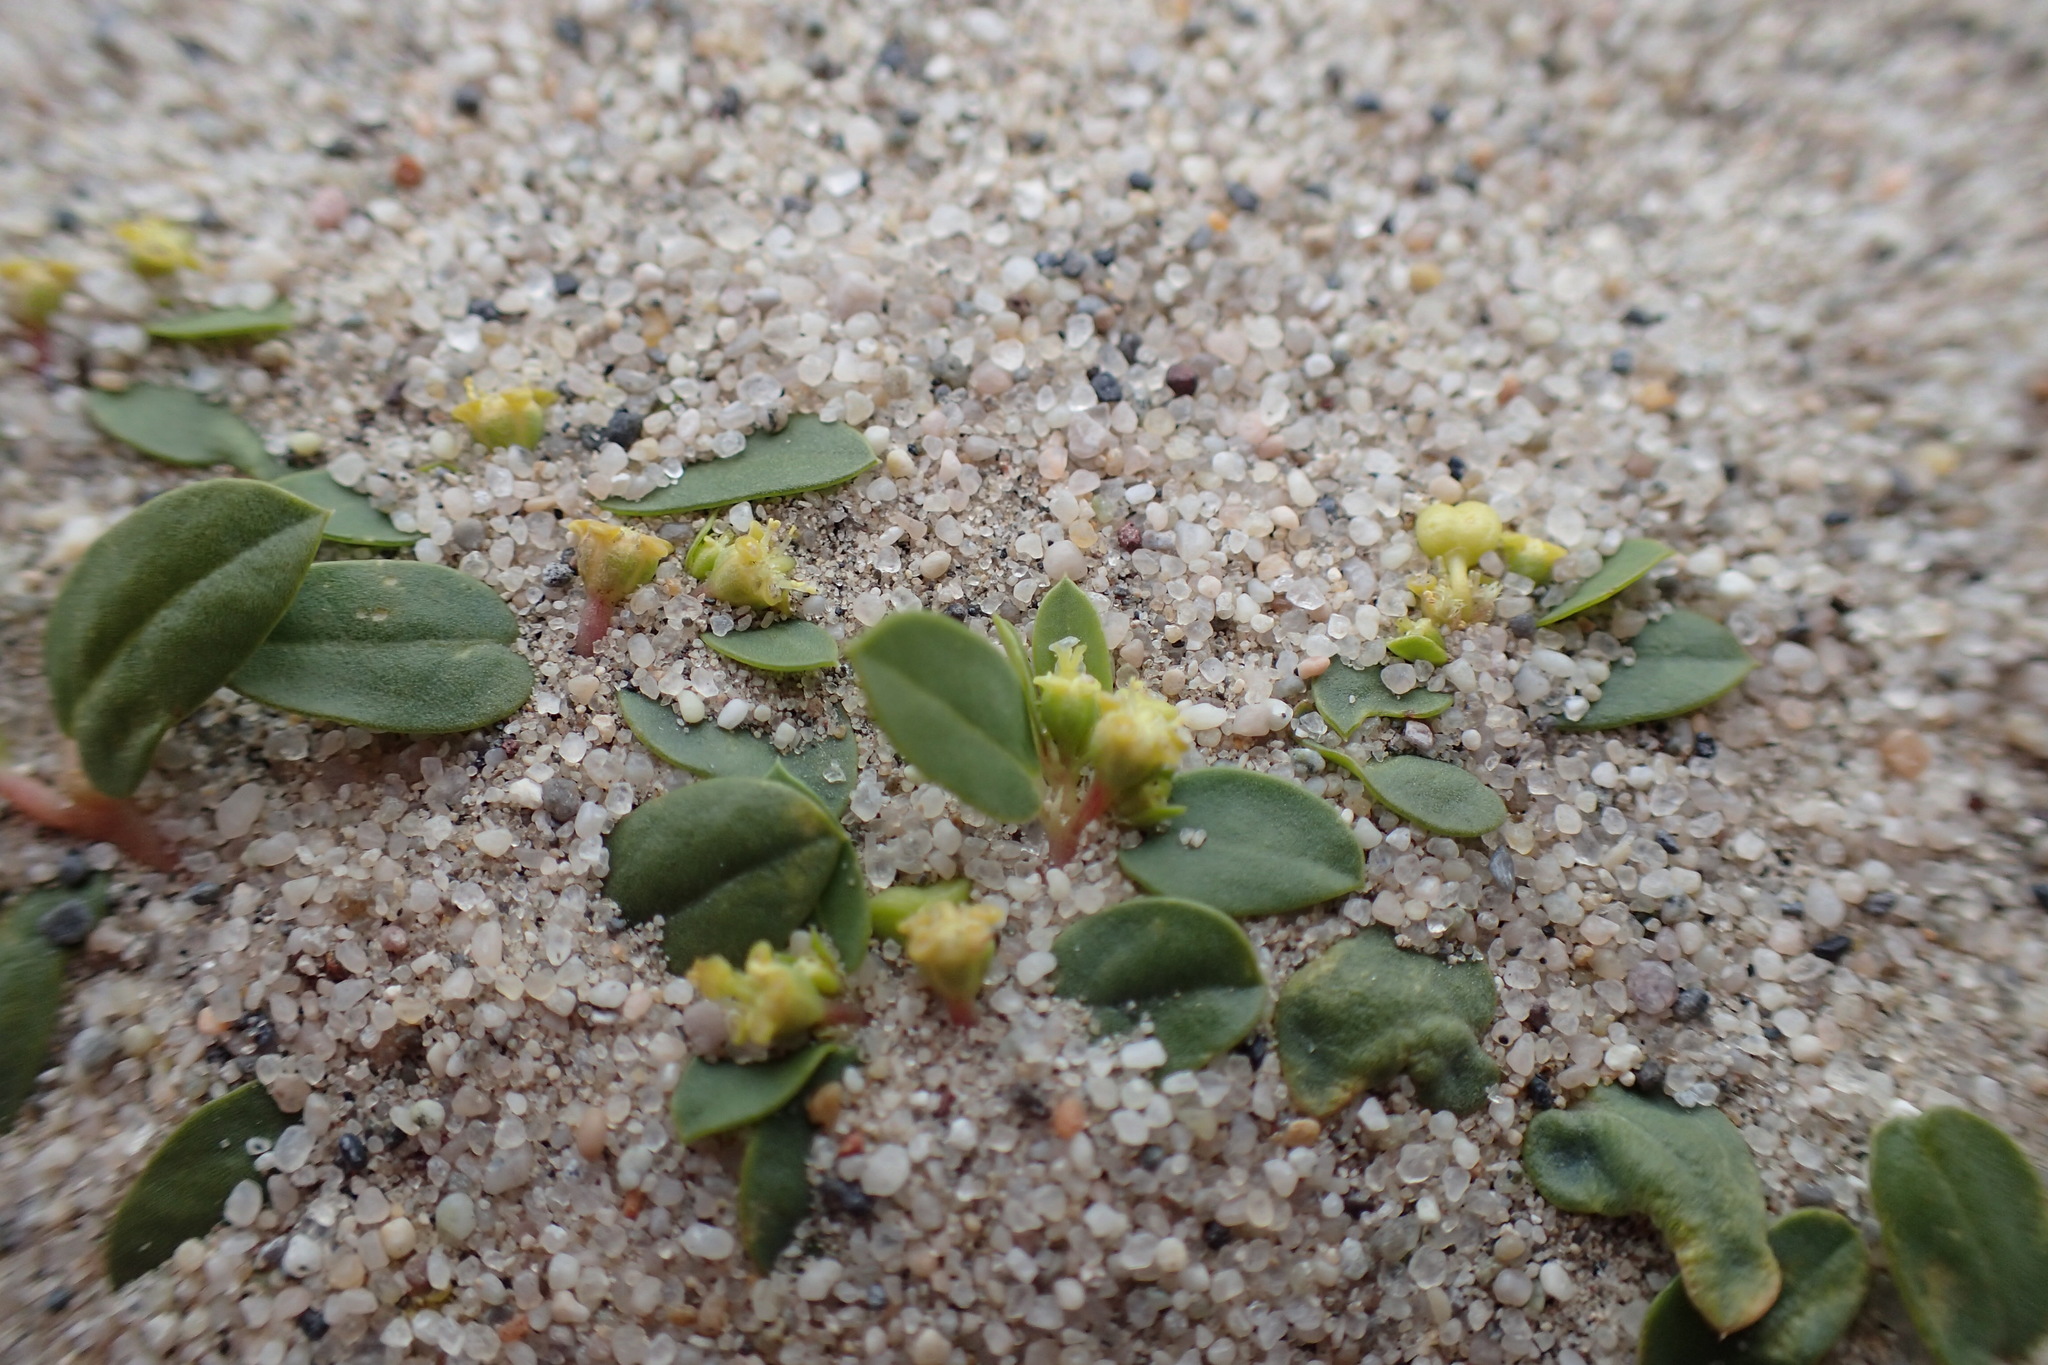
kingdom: Plantae
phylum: Tracheophyta
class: Magnoliopsida
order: Malpighiales
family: Euphorbiaceae
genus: Euphorbia
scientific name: Euphorbia ocellata
